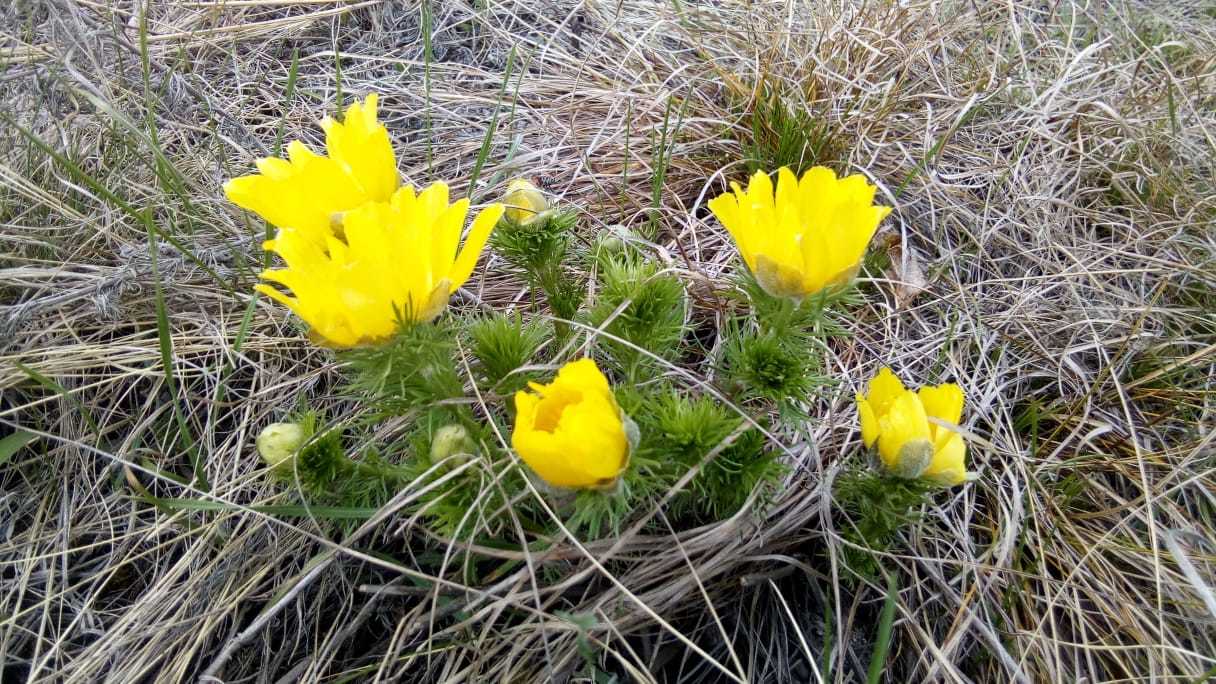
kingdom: Plantae
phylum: Tracheophyta
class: Magnoliopsida
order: Ranunculales
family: Ranunculaceae
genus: Adonis
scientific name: Adonis vernalis
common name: Yellow pheasants-eye
